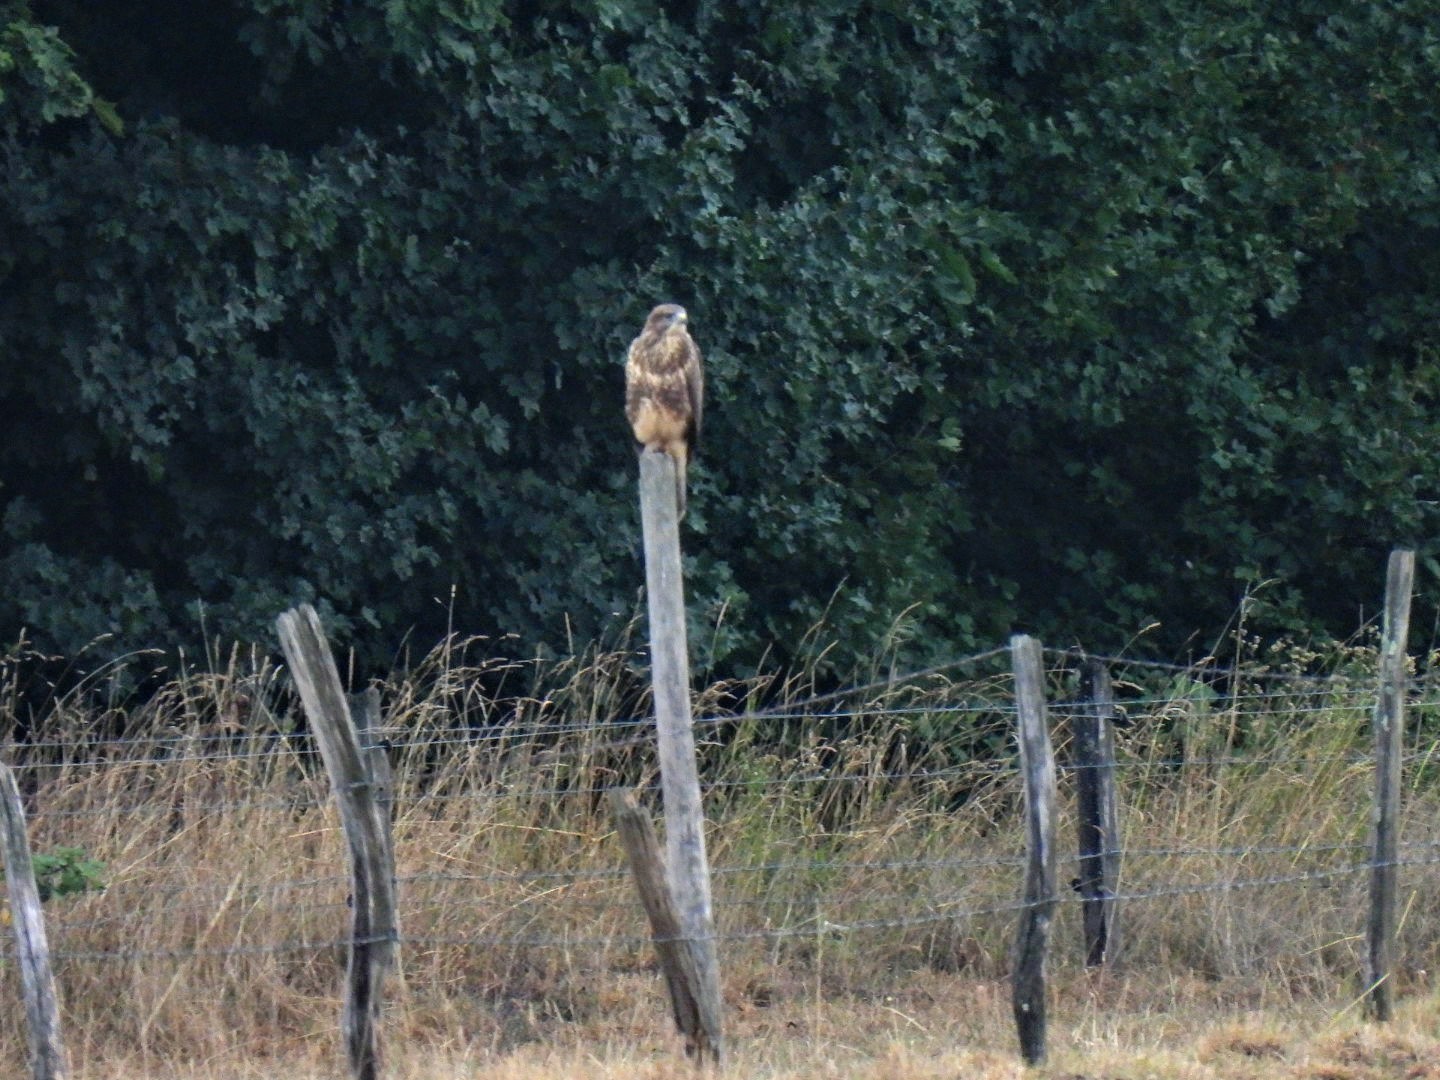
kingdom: Animalia
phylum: Chordata
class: Aves
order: Accipitriformes
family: Accipitridae
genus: Buteo
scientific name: Buteo buteo
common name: Common buzzard
